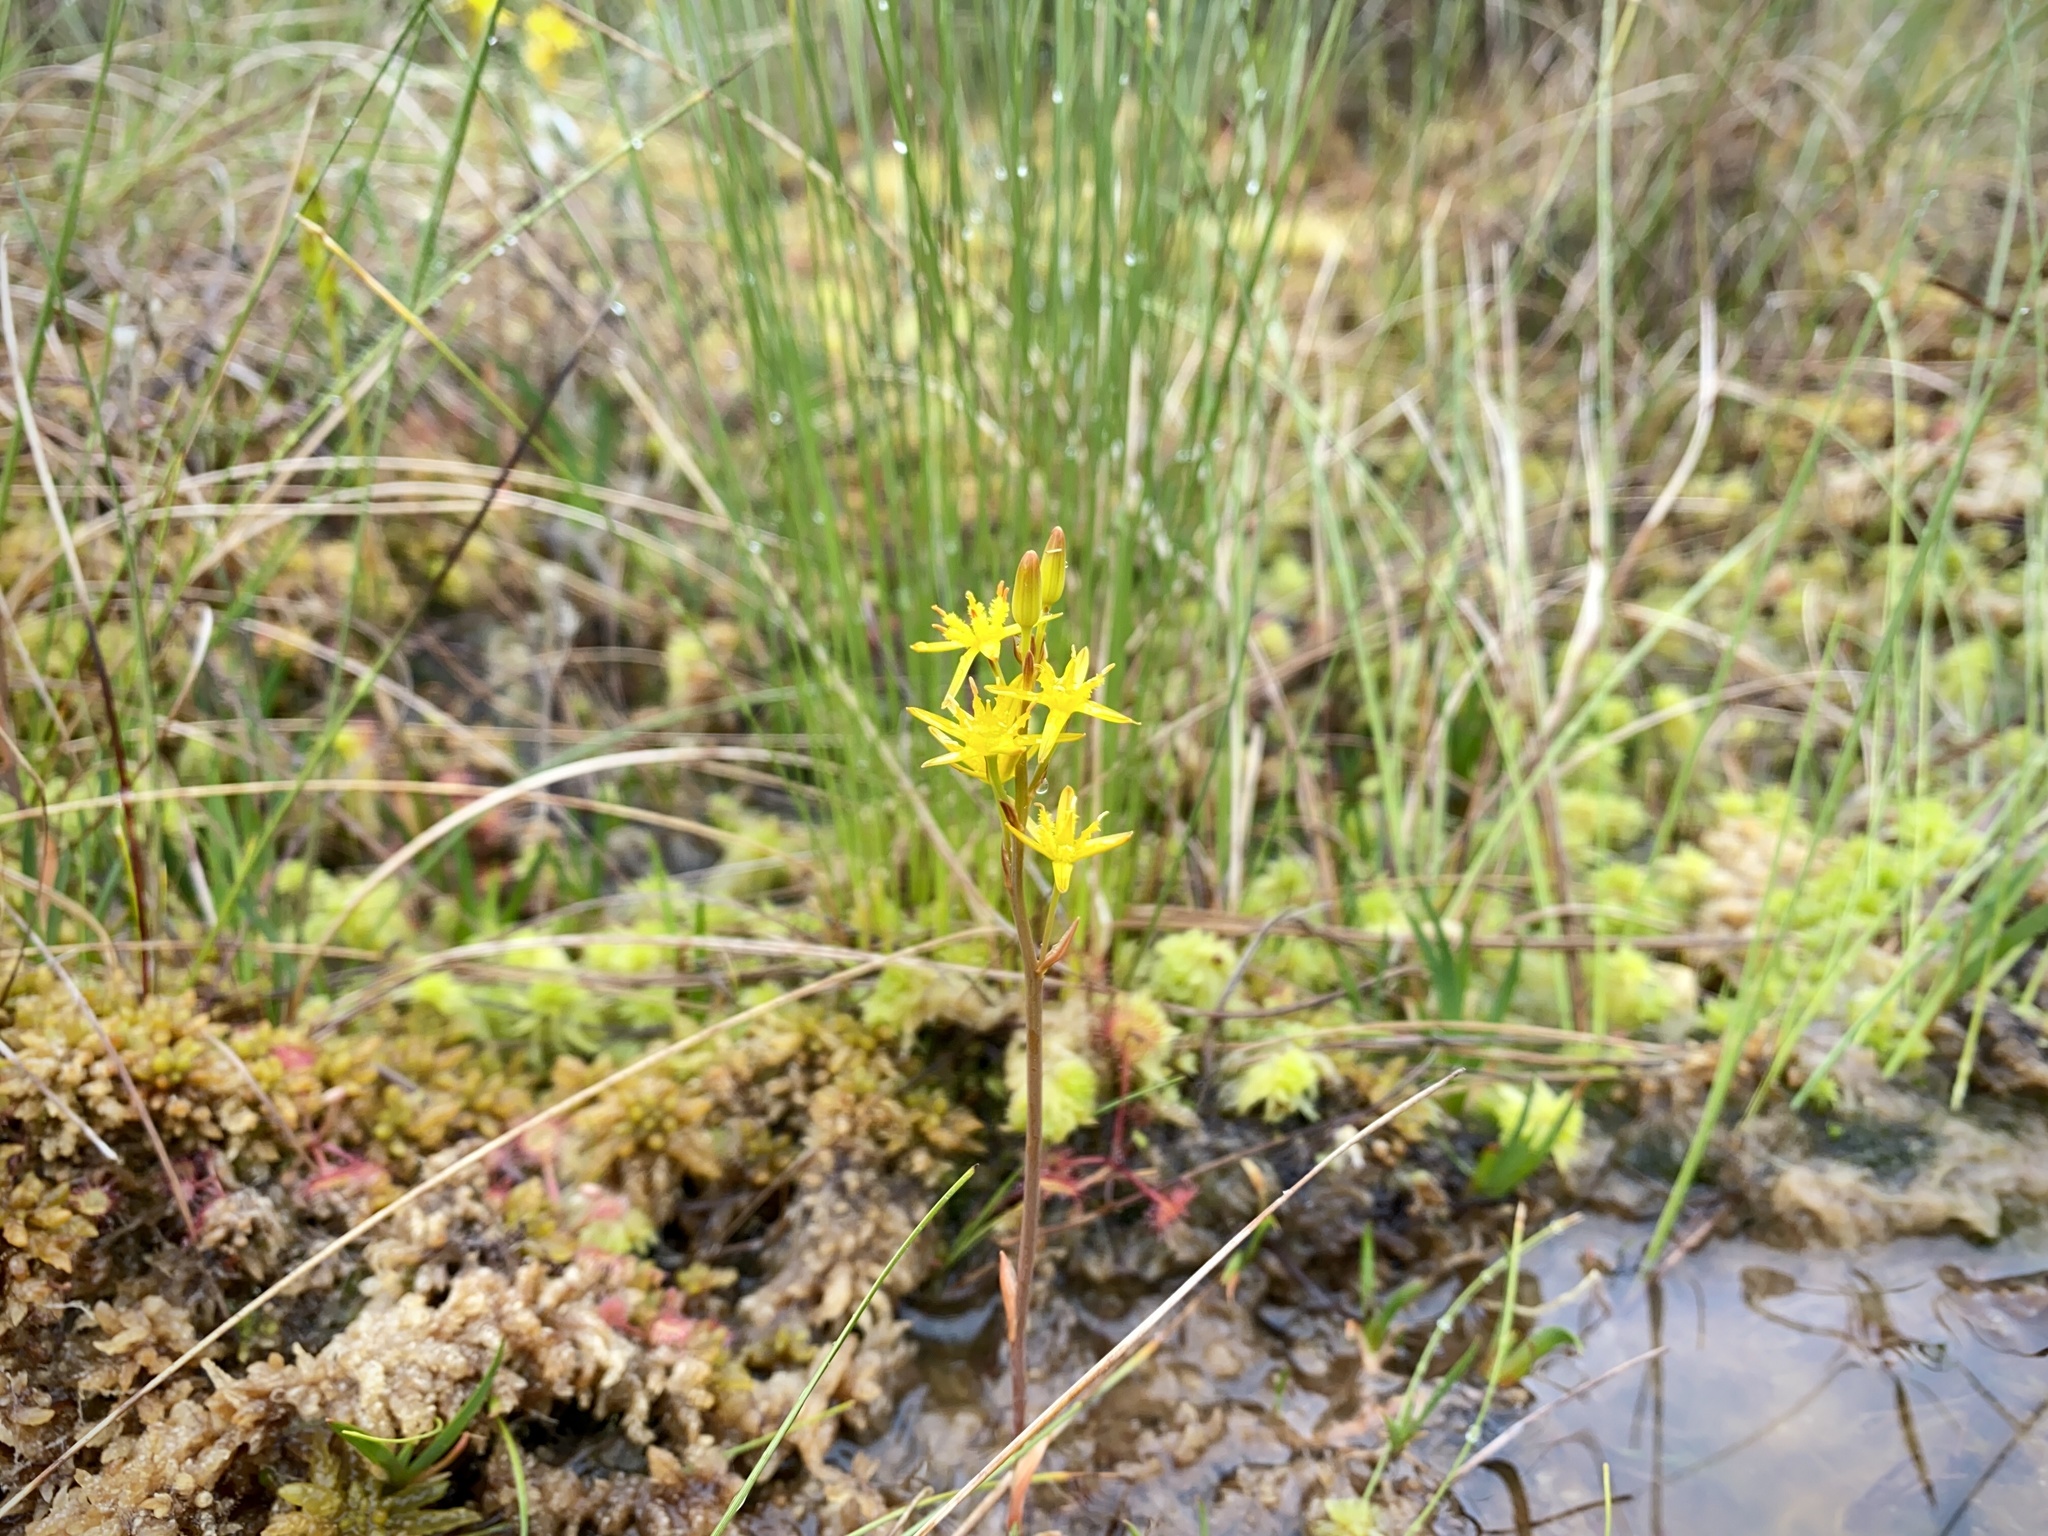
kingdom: Plantae
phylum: Tracheophyta
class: Liliopsida
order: Dioscoreales
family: Nartheciaceae
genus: Narthecium
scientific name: Narthecium ossifragum
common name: Bog asphodel
